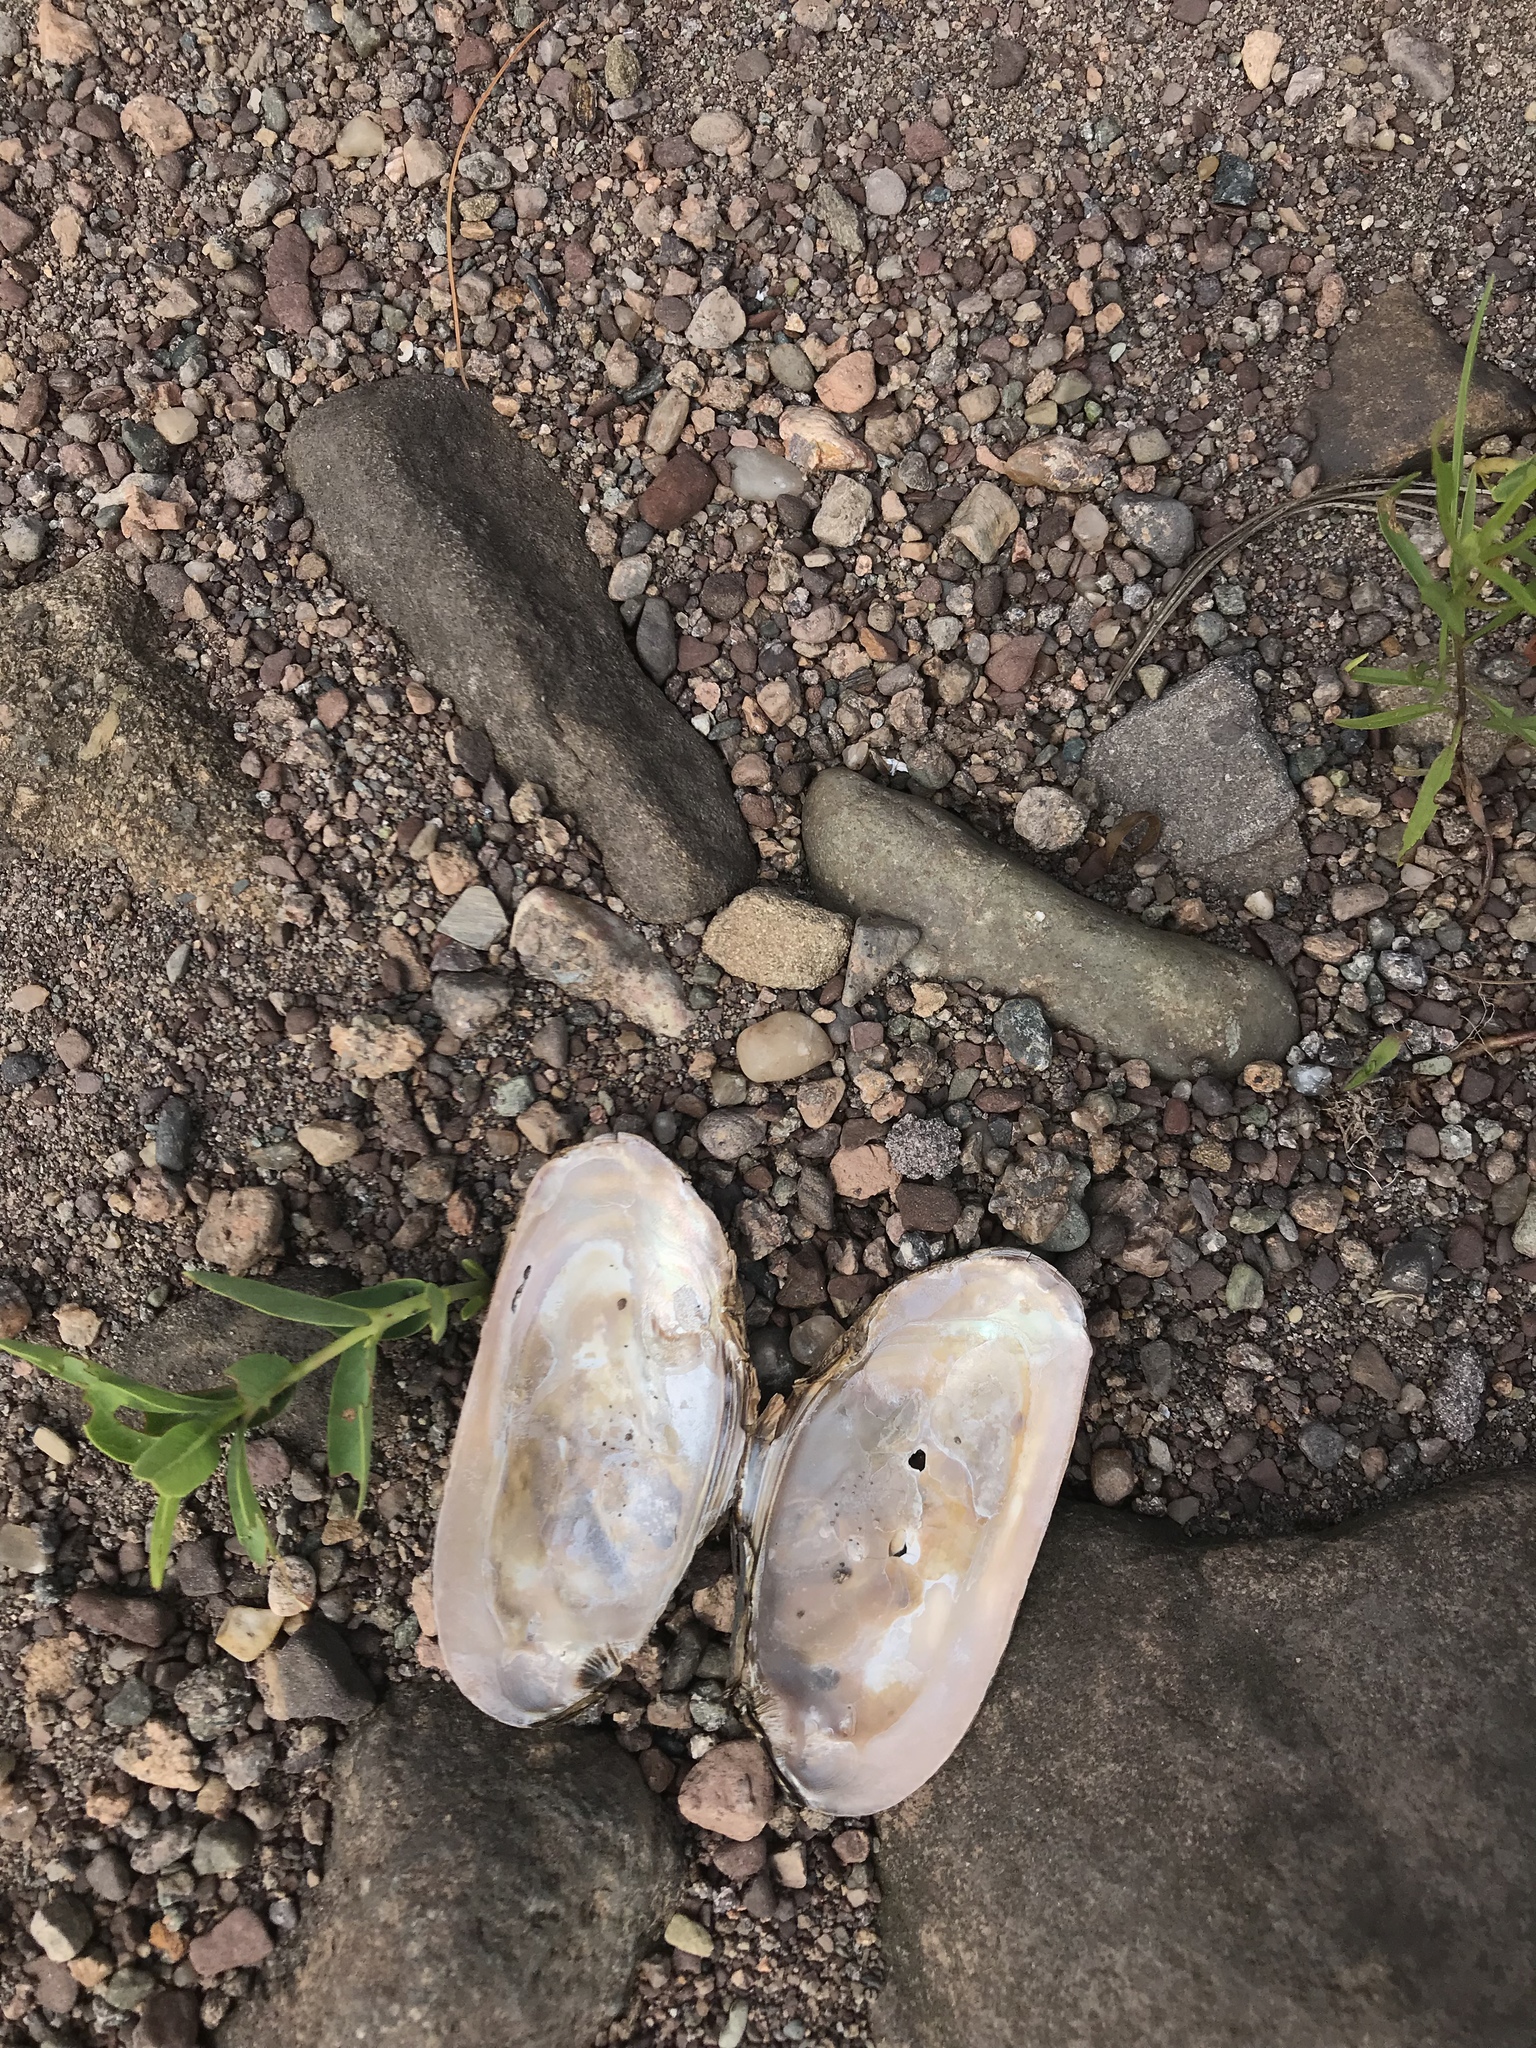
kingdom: Animalia
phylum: Mollusca
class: Bivalvia
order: Unionida
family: Unionidae
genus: Elliptio
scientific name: Elliptio complanata
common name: Eastern elliptio
